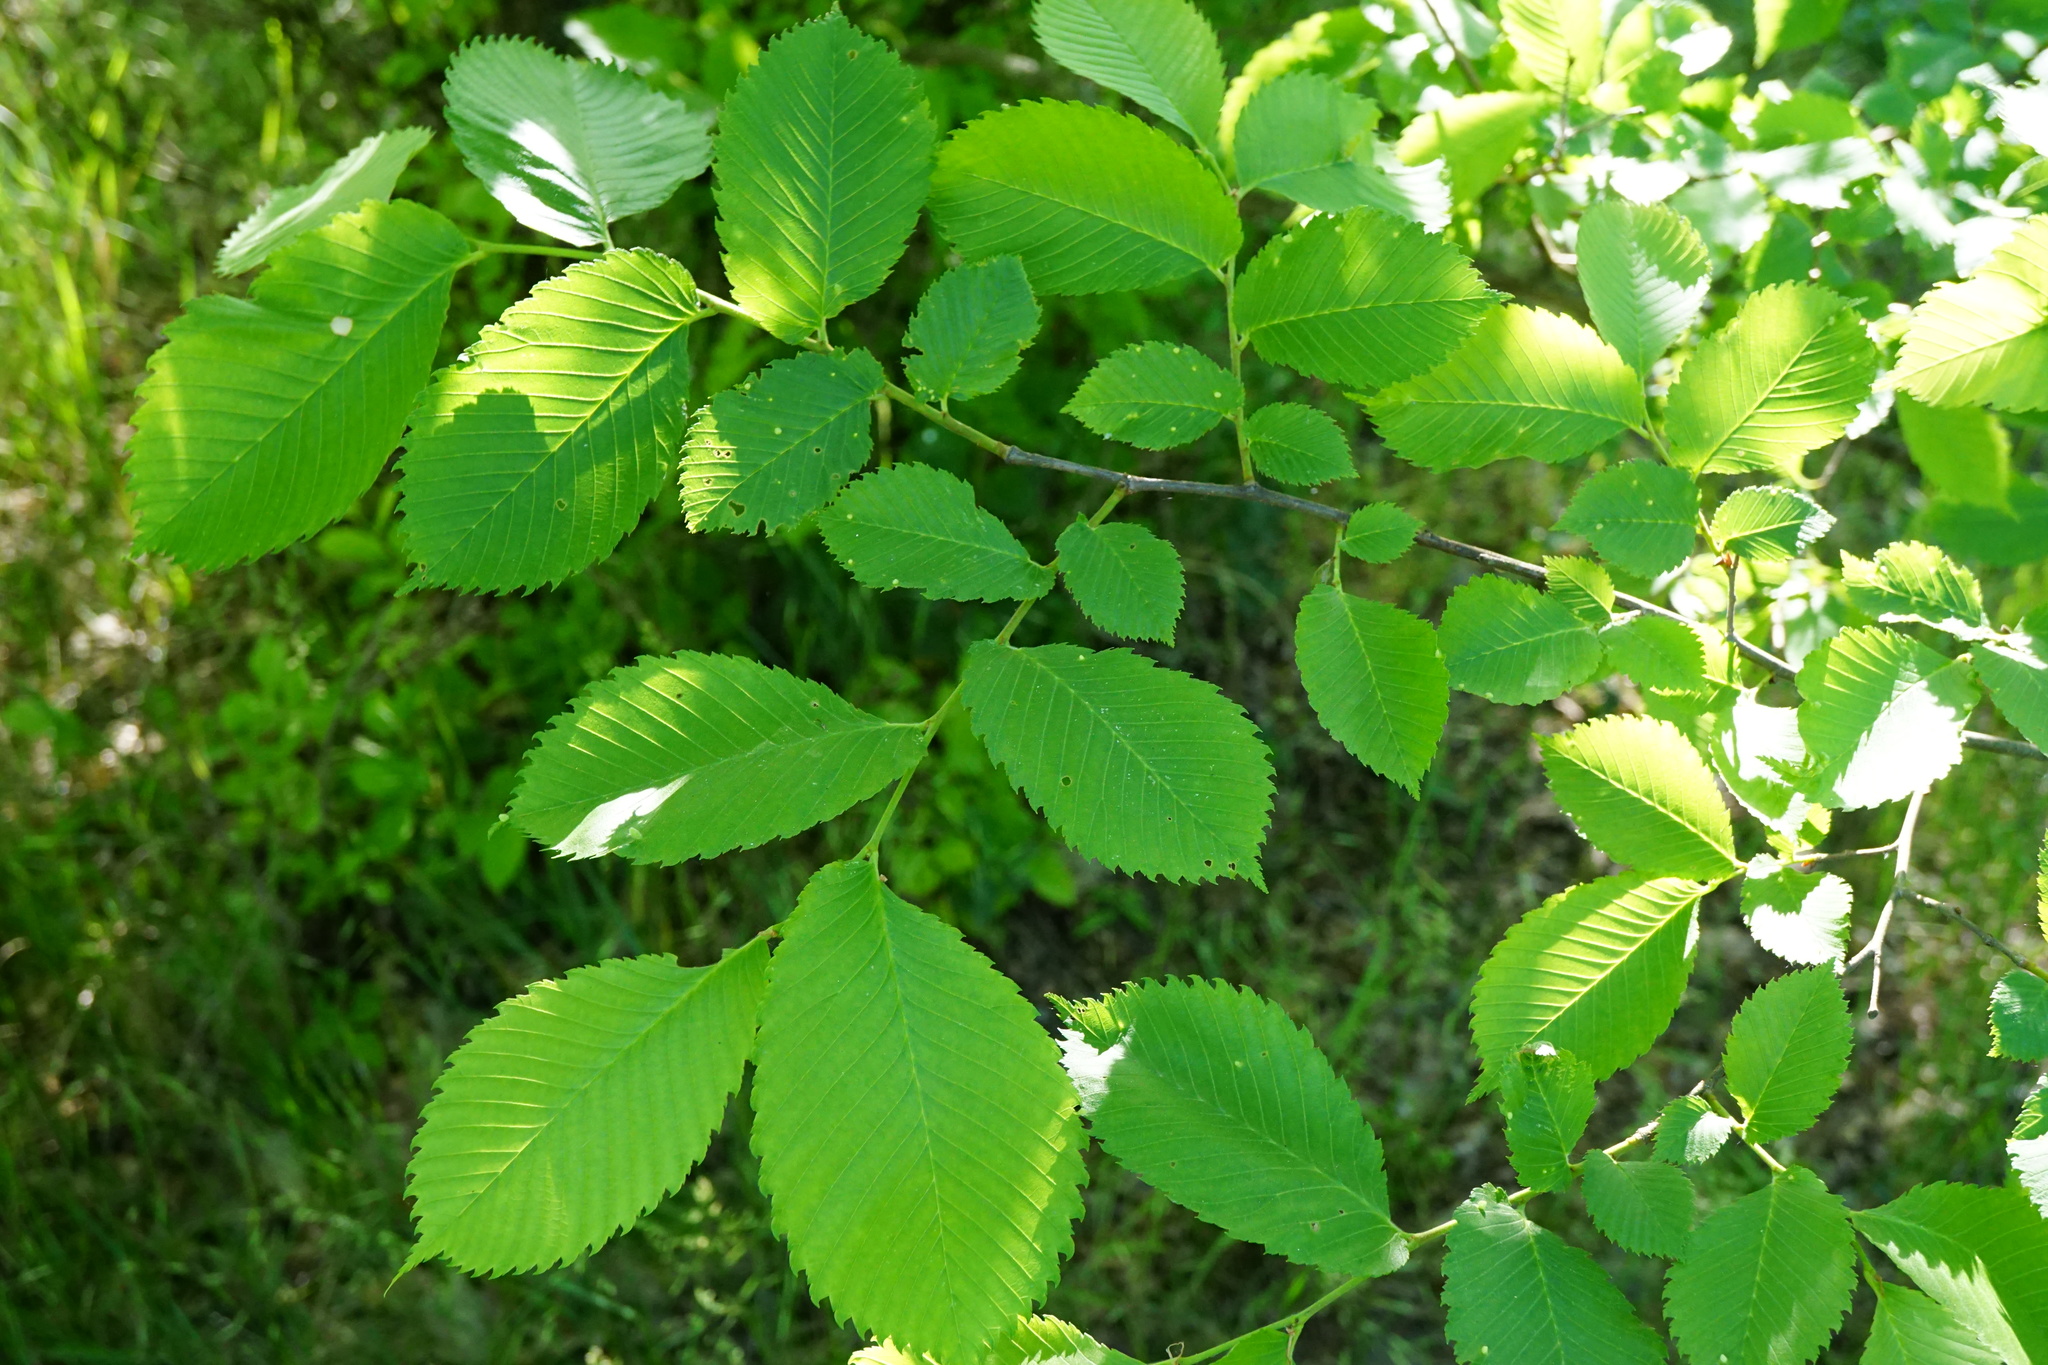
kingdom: Plantae
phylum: Tracheophyta
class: Magnoliopsida
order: Rosales
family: Ulmaceae
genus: Ulmus
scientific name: Ulmus laevis
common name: European white-elm
